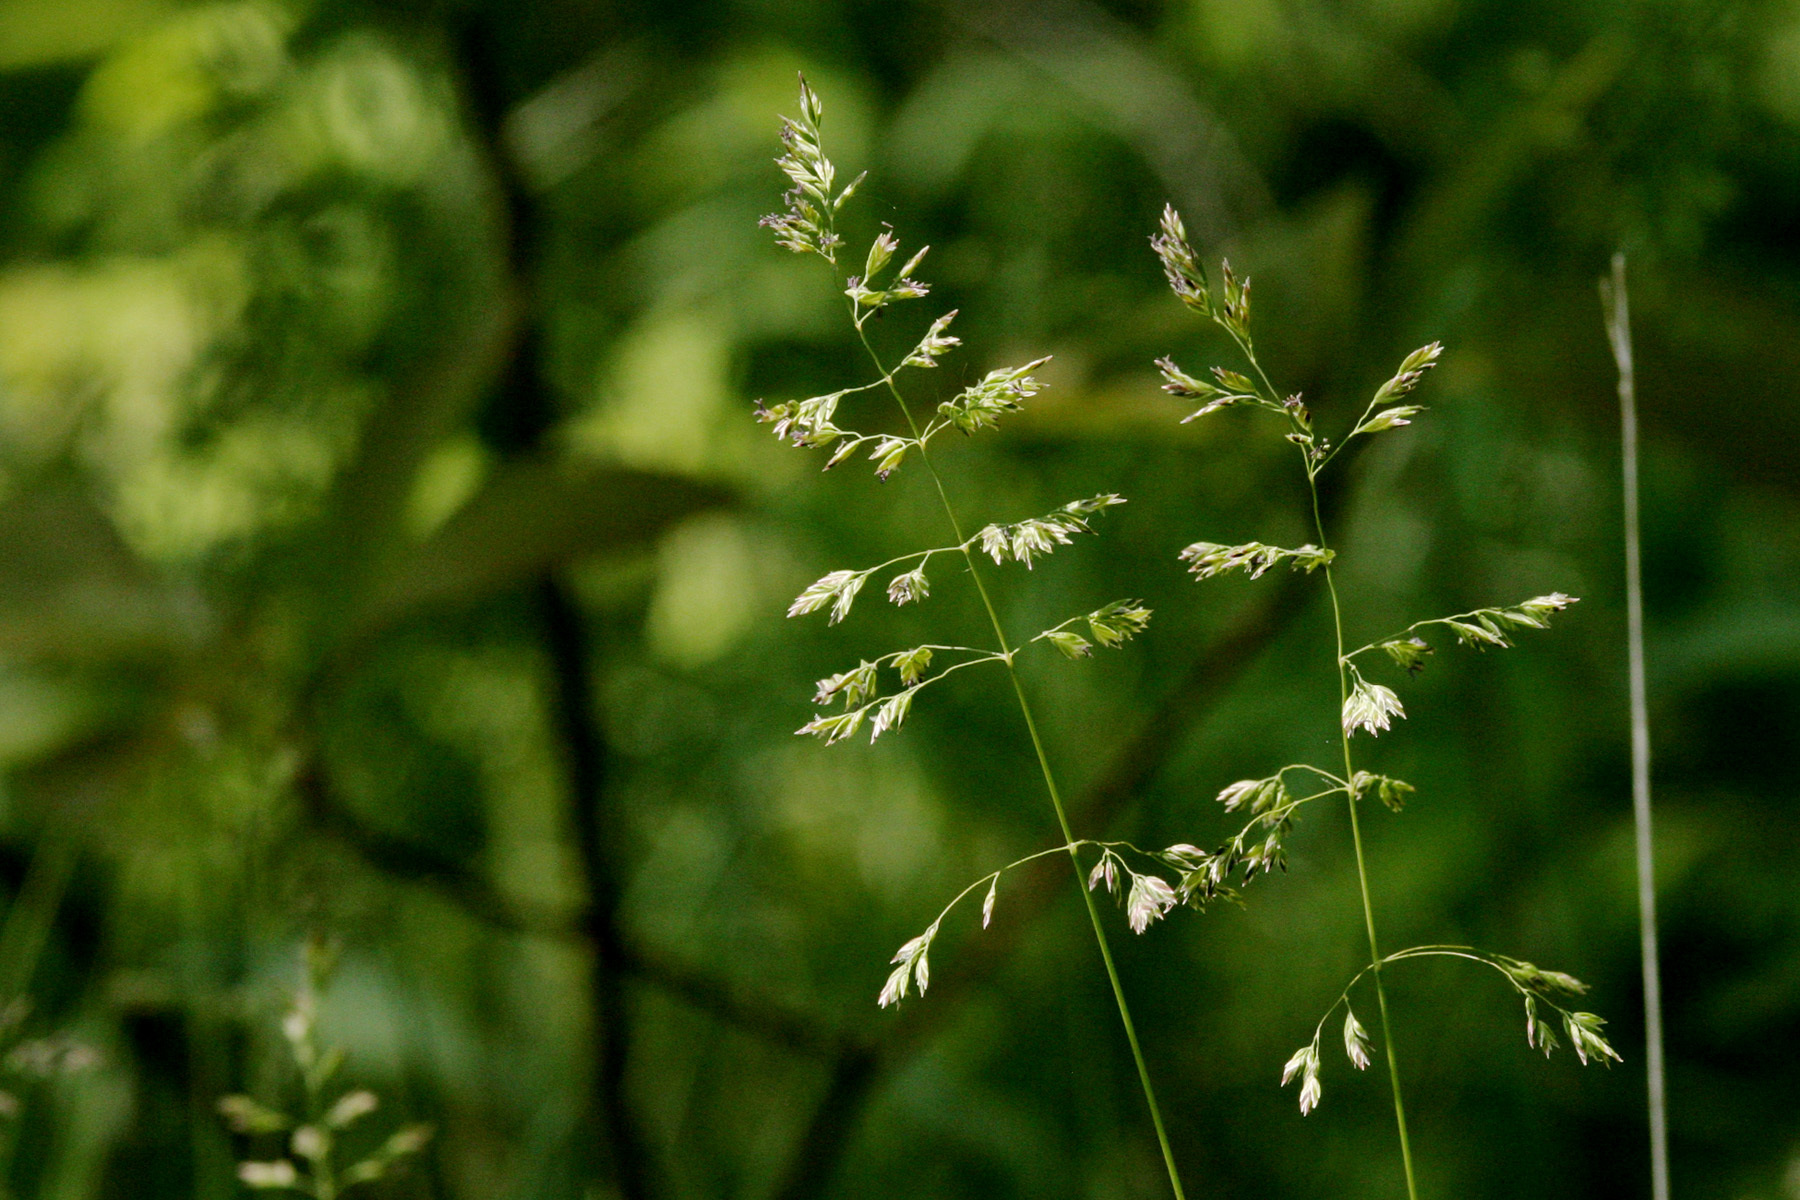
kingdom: Plantae
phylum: Tracheophyta
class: Liliopsida
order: Poales
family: Poaceae
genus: Poa
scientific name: Poa pratensis
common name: Kentucky bluegrass
